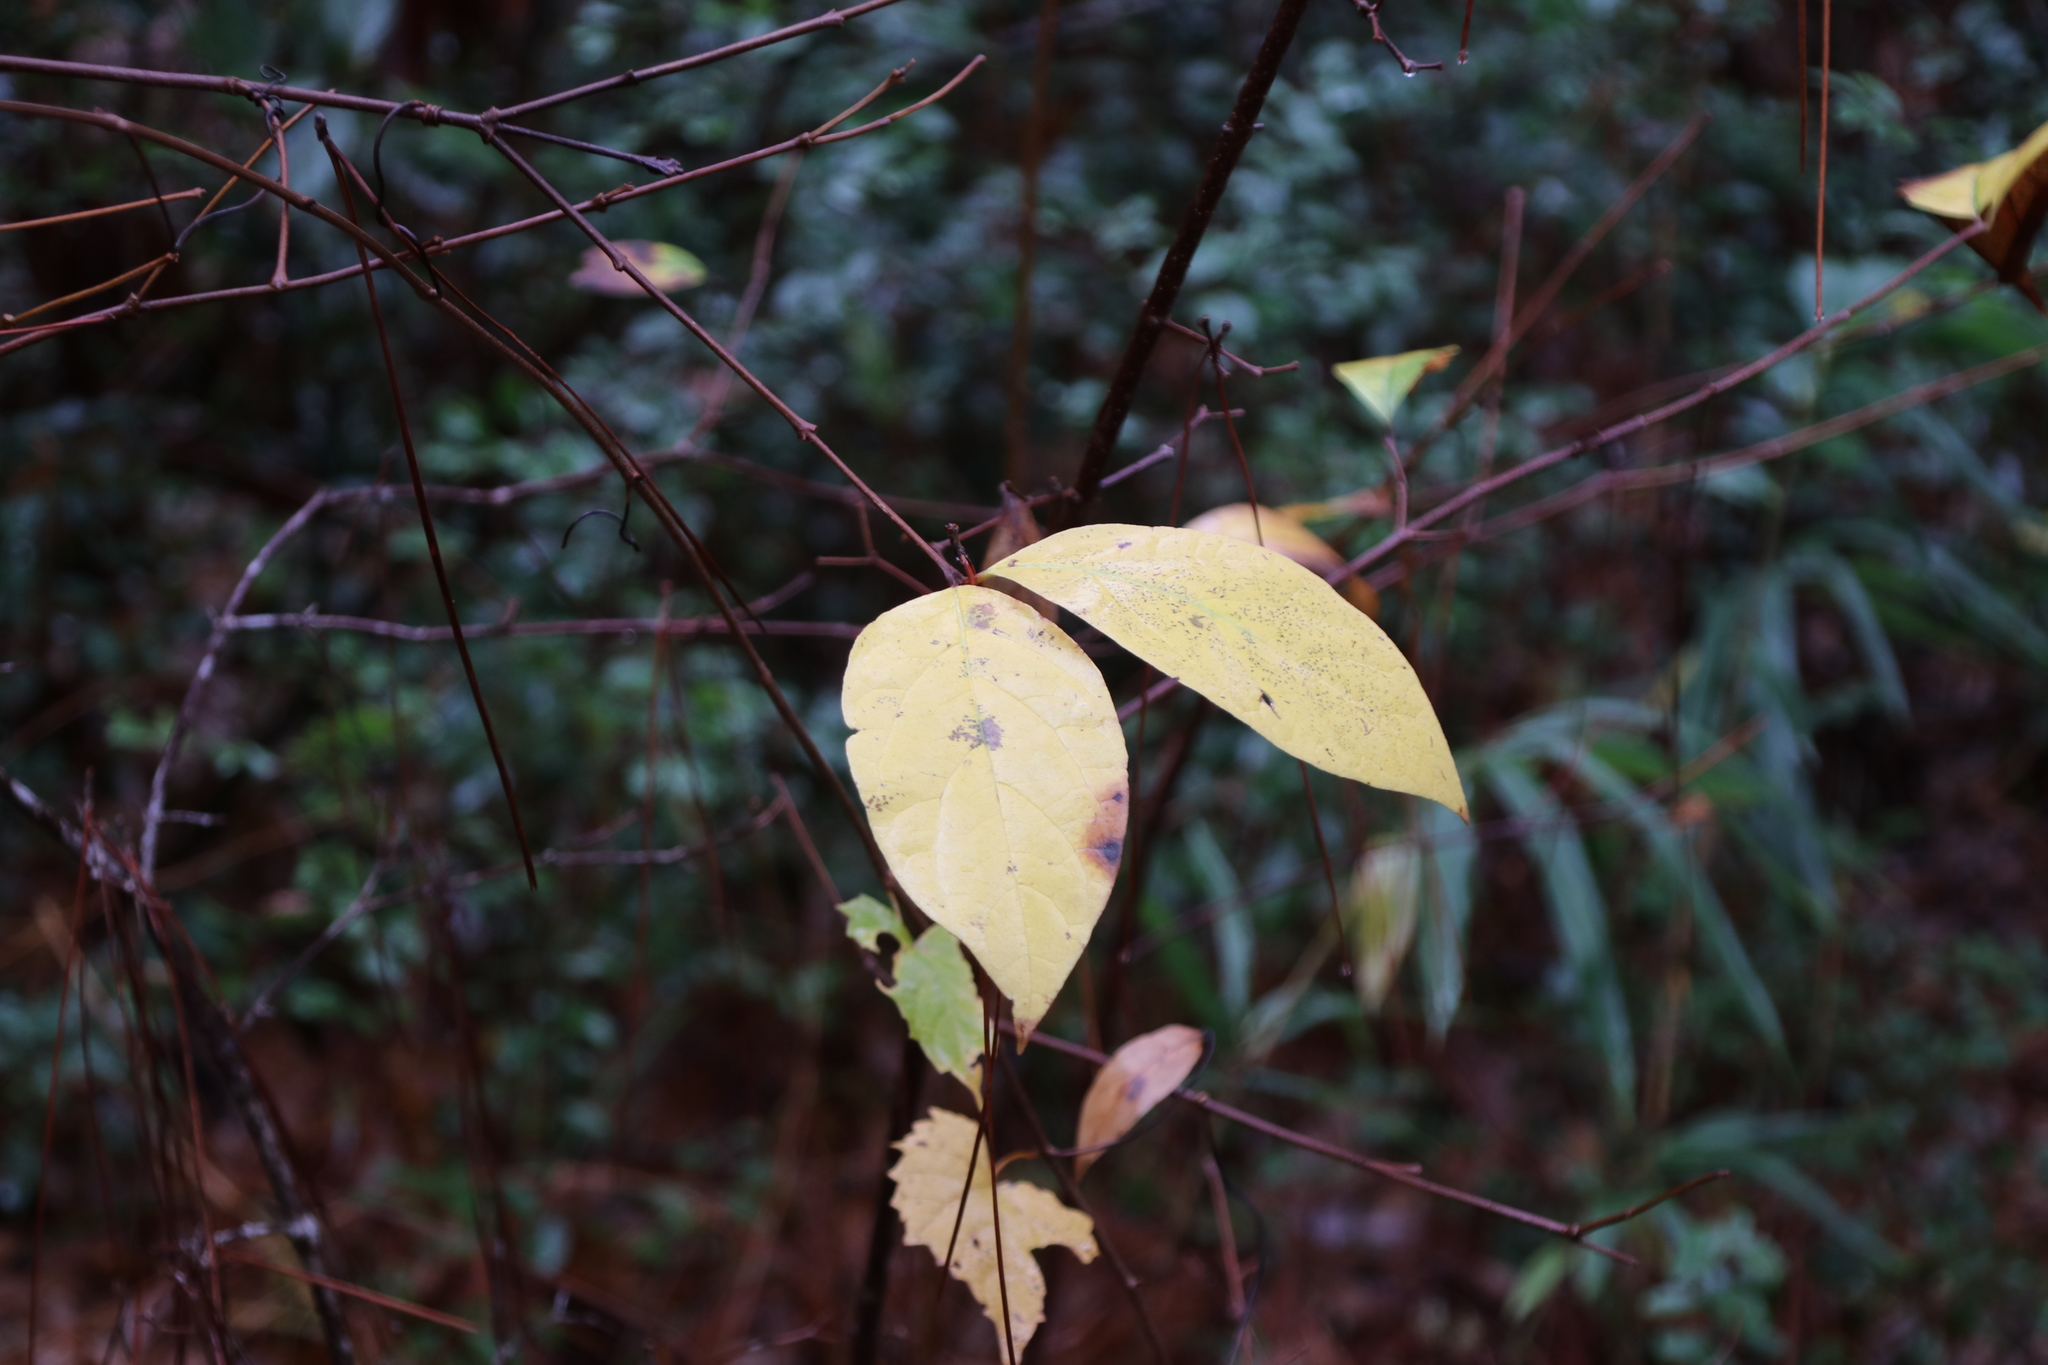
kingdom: Plantae
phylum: Tracheophyta
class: Magnoliopsida
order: Dipsacales
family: Viburnaceae
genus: Viburnum
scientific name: Viburnum nudum
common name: Possum haw
